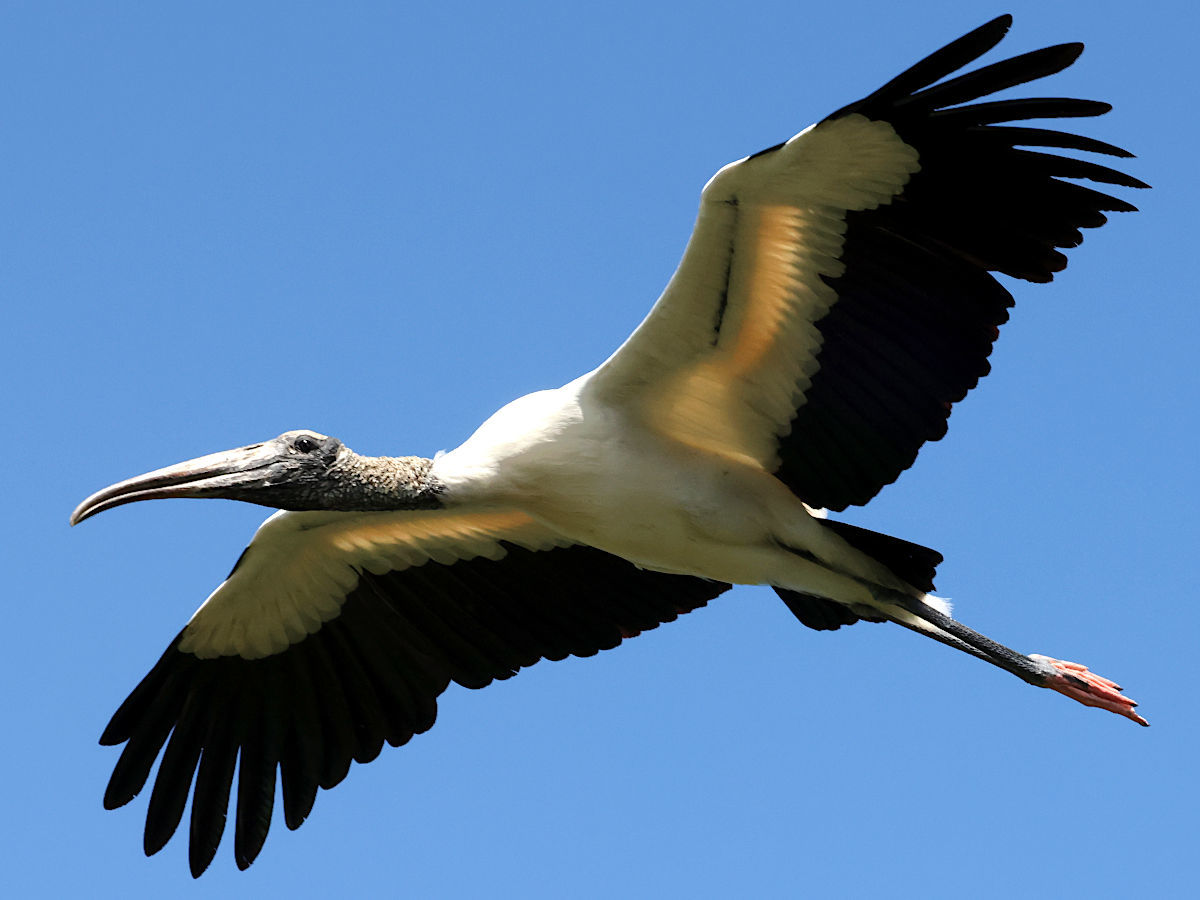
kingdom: Animalia
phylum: Chordata
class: Aves
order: Ciconiiformes
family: Ciconiidae
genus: Mycteria
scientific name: Mycteria americana
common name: Wood stork
